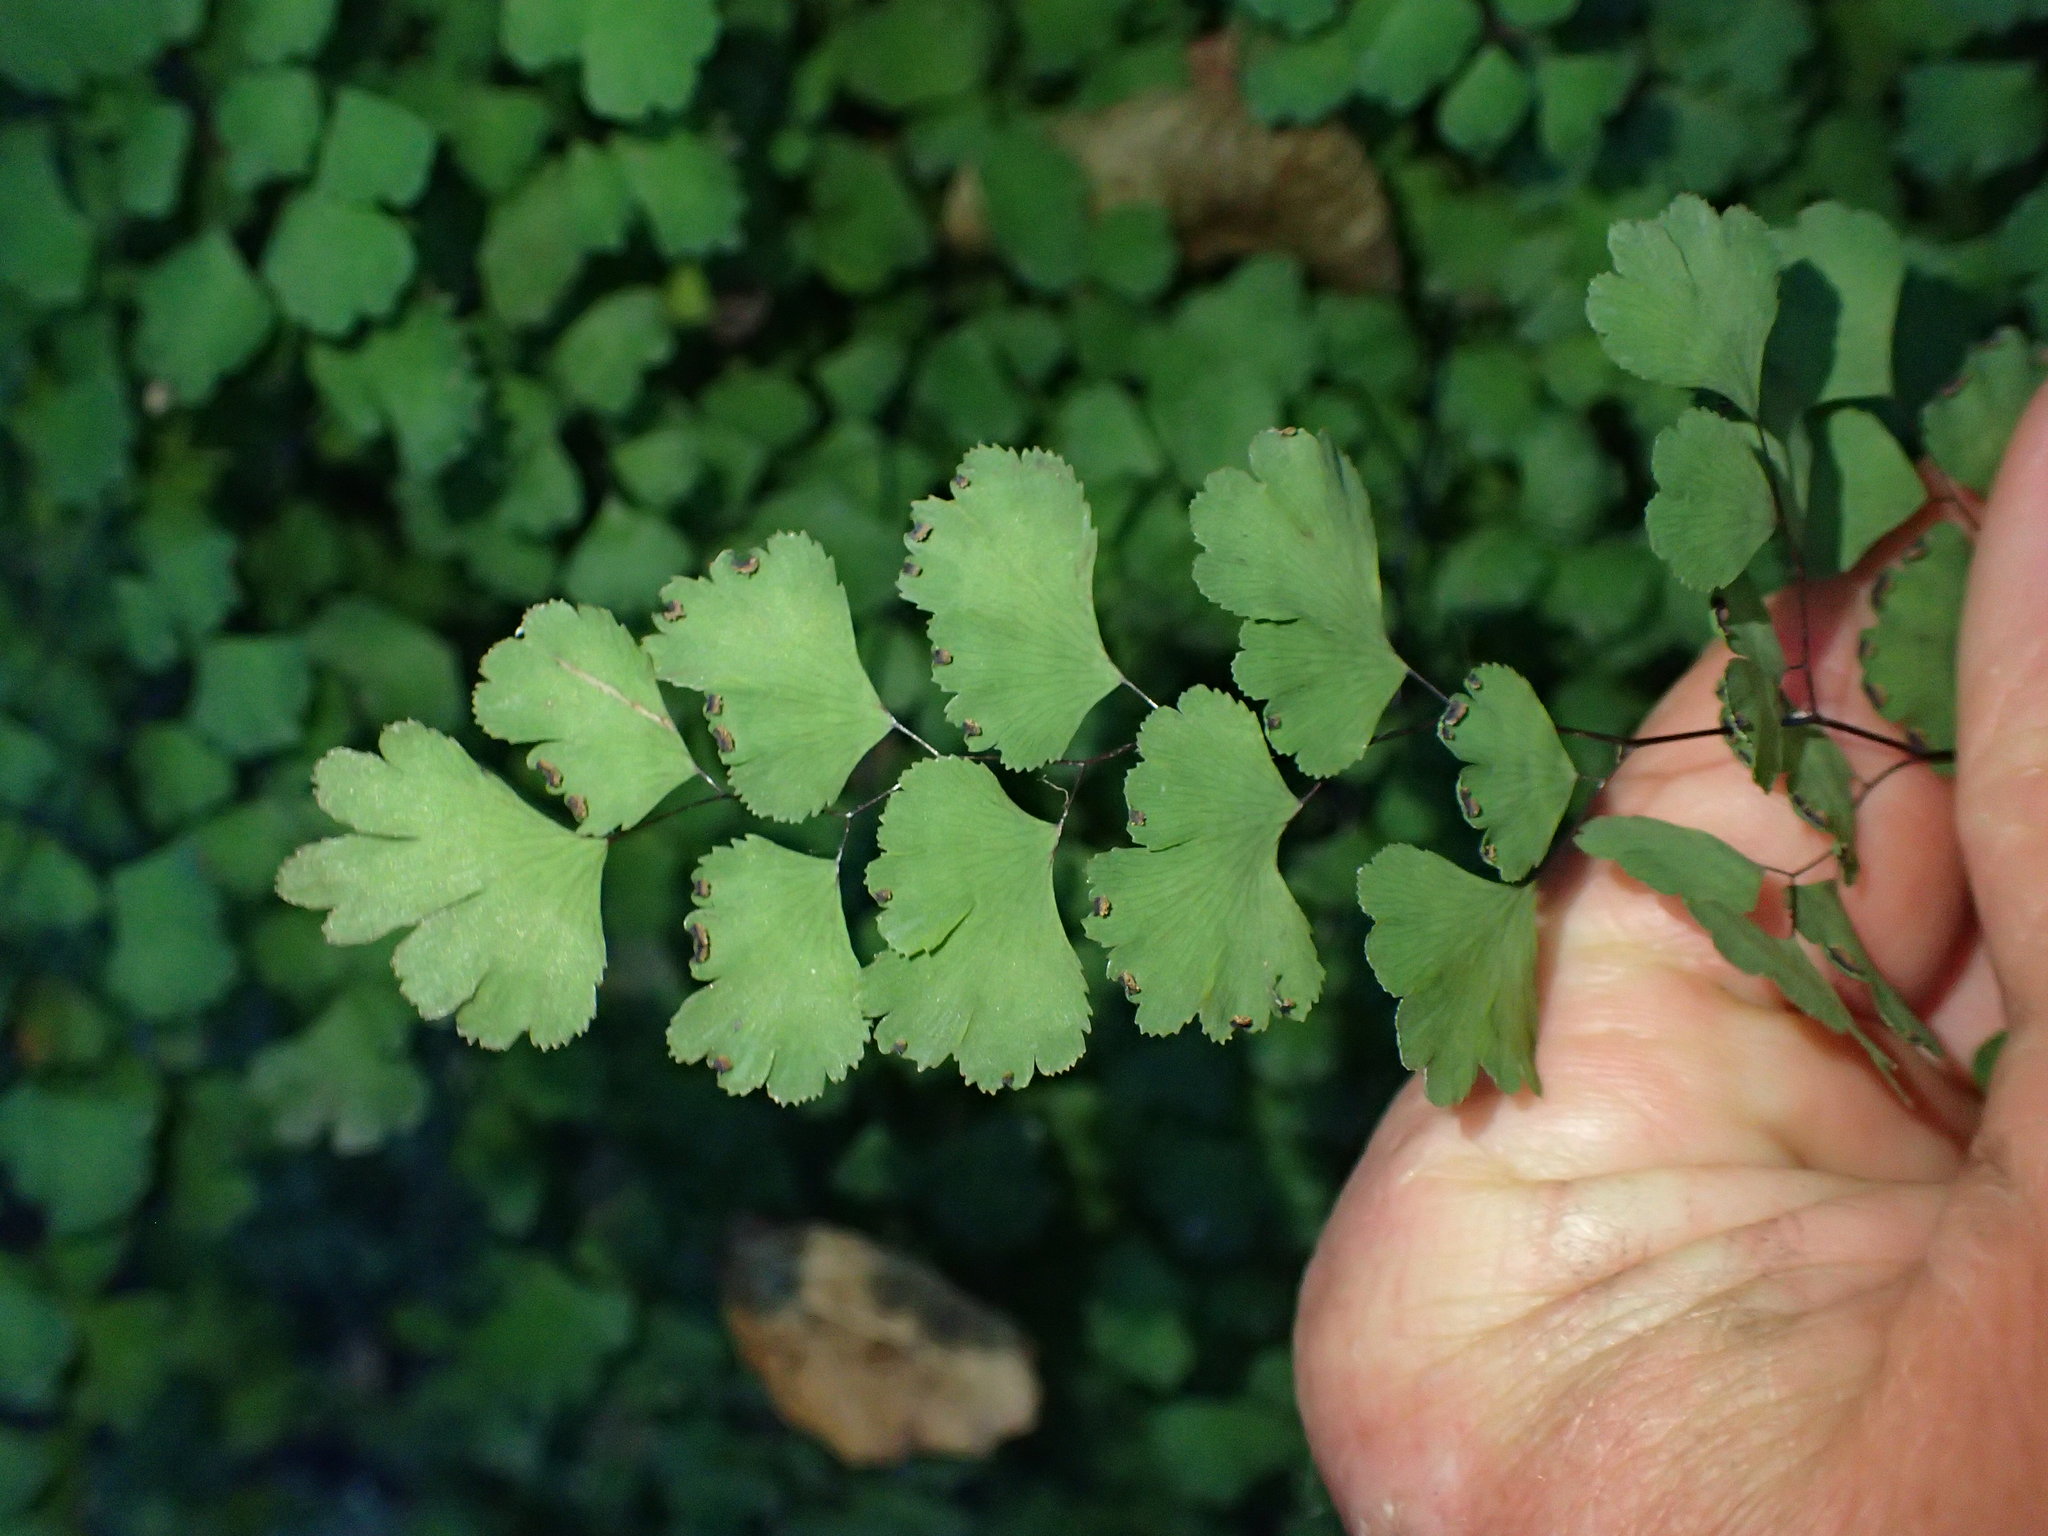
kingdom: Plantae
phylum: Tracheophyta
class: Polypodiopsida
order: Polypodiales
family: Pteridaceae
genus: Adiantum
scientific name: Adiantum capillus-veneris
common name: Maidenhair fern
